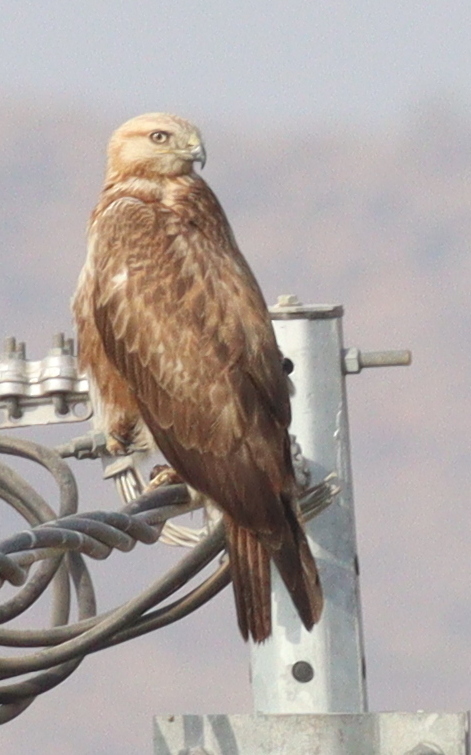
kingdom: Animalia
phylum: Chordata
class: Aves
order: Accipitriformes
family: Accipitridae
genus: Buteo
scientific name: Buteo rufinus
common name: Long-legged buzzard
